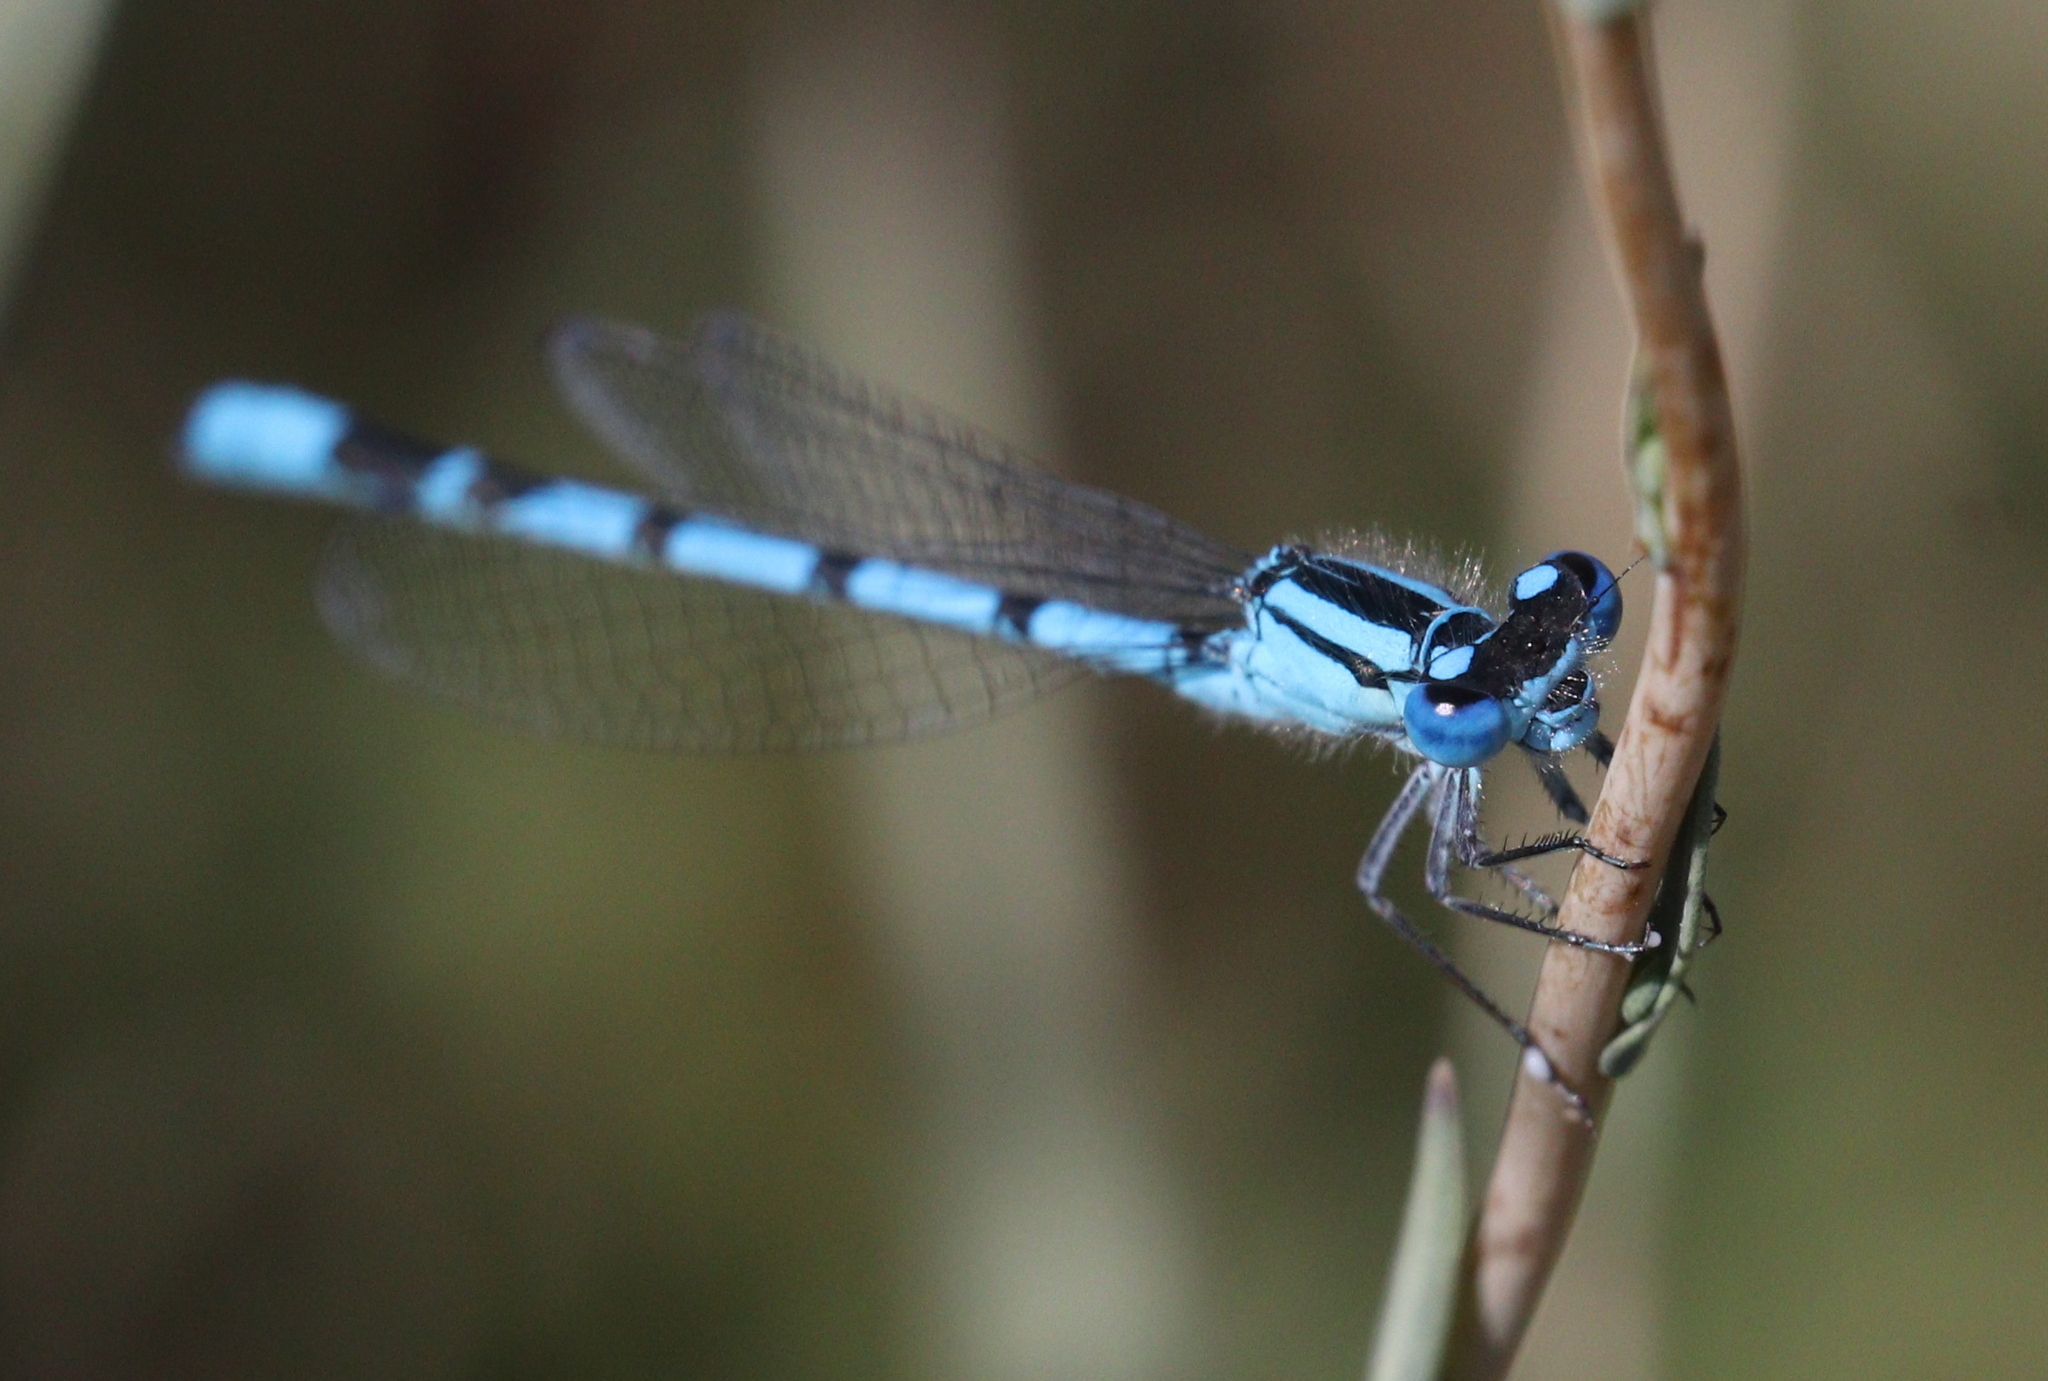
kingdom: Animalia
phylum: Arthropoda
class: Insecta
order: Odonata
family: Coenagrionidae
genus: Enallagma
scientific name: Enallagma cyathigerum
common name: Common blue damselfly
